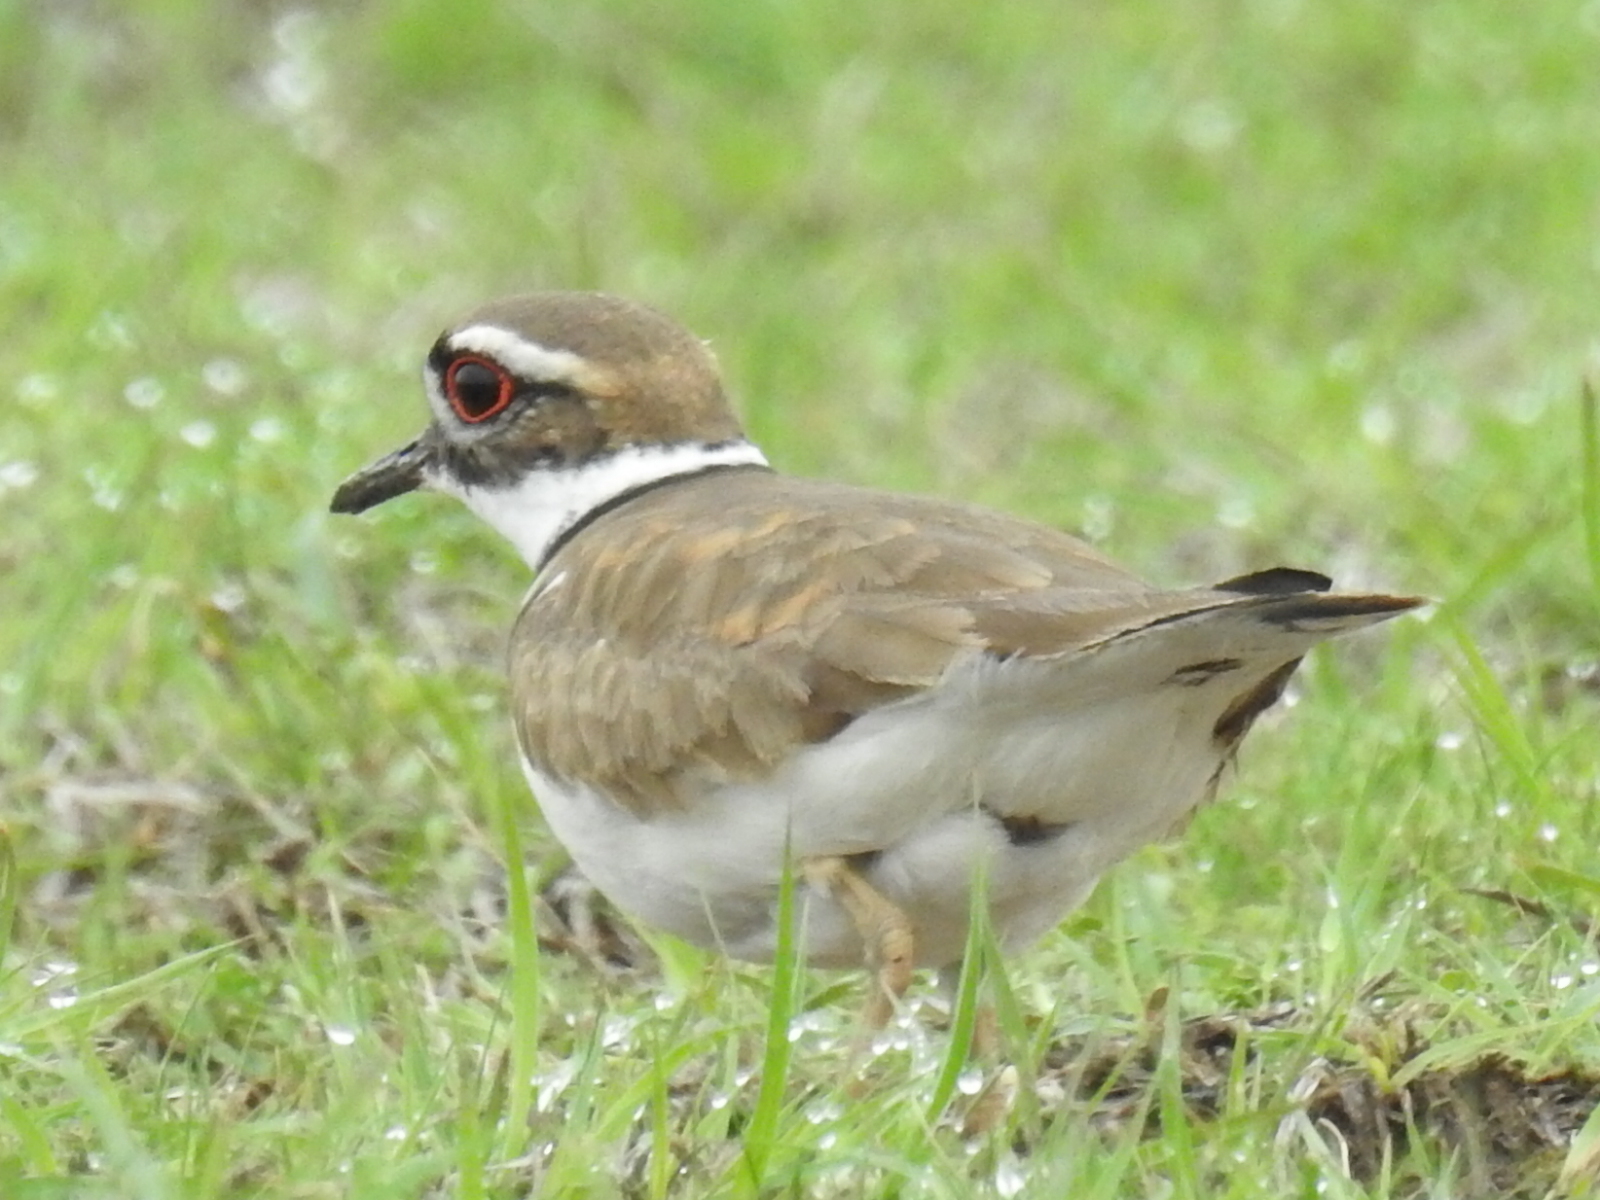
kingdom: Animalia
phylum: Chordata
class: Aves
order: Charadriiformes
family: Charadriidae
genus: Charadrius
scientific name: Charadrius vociferus
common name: Killdeer
